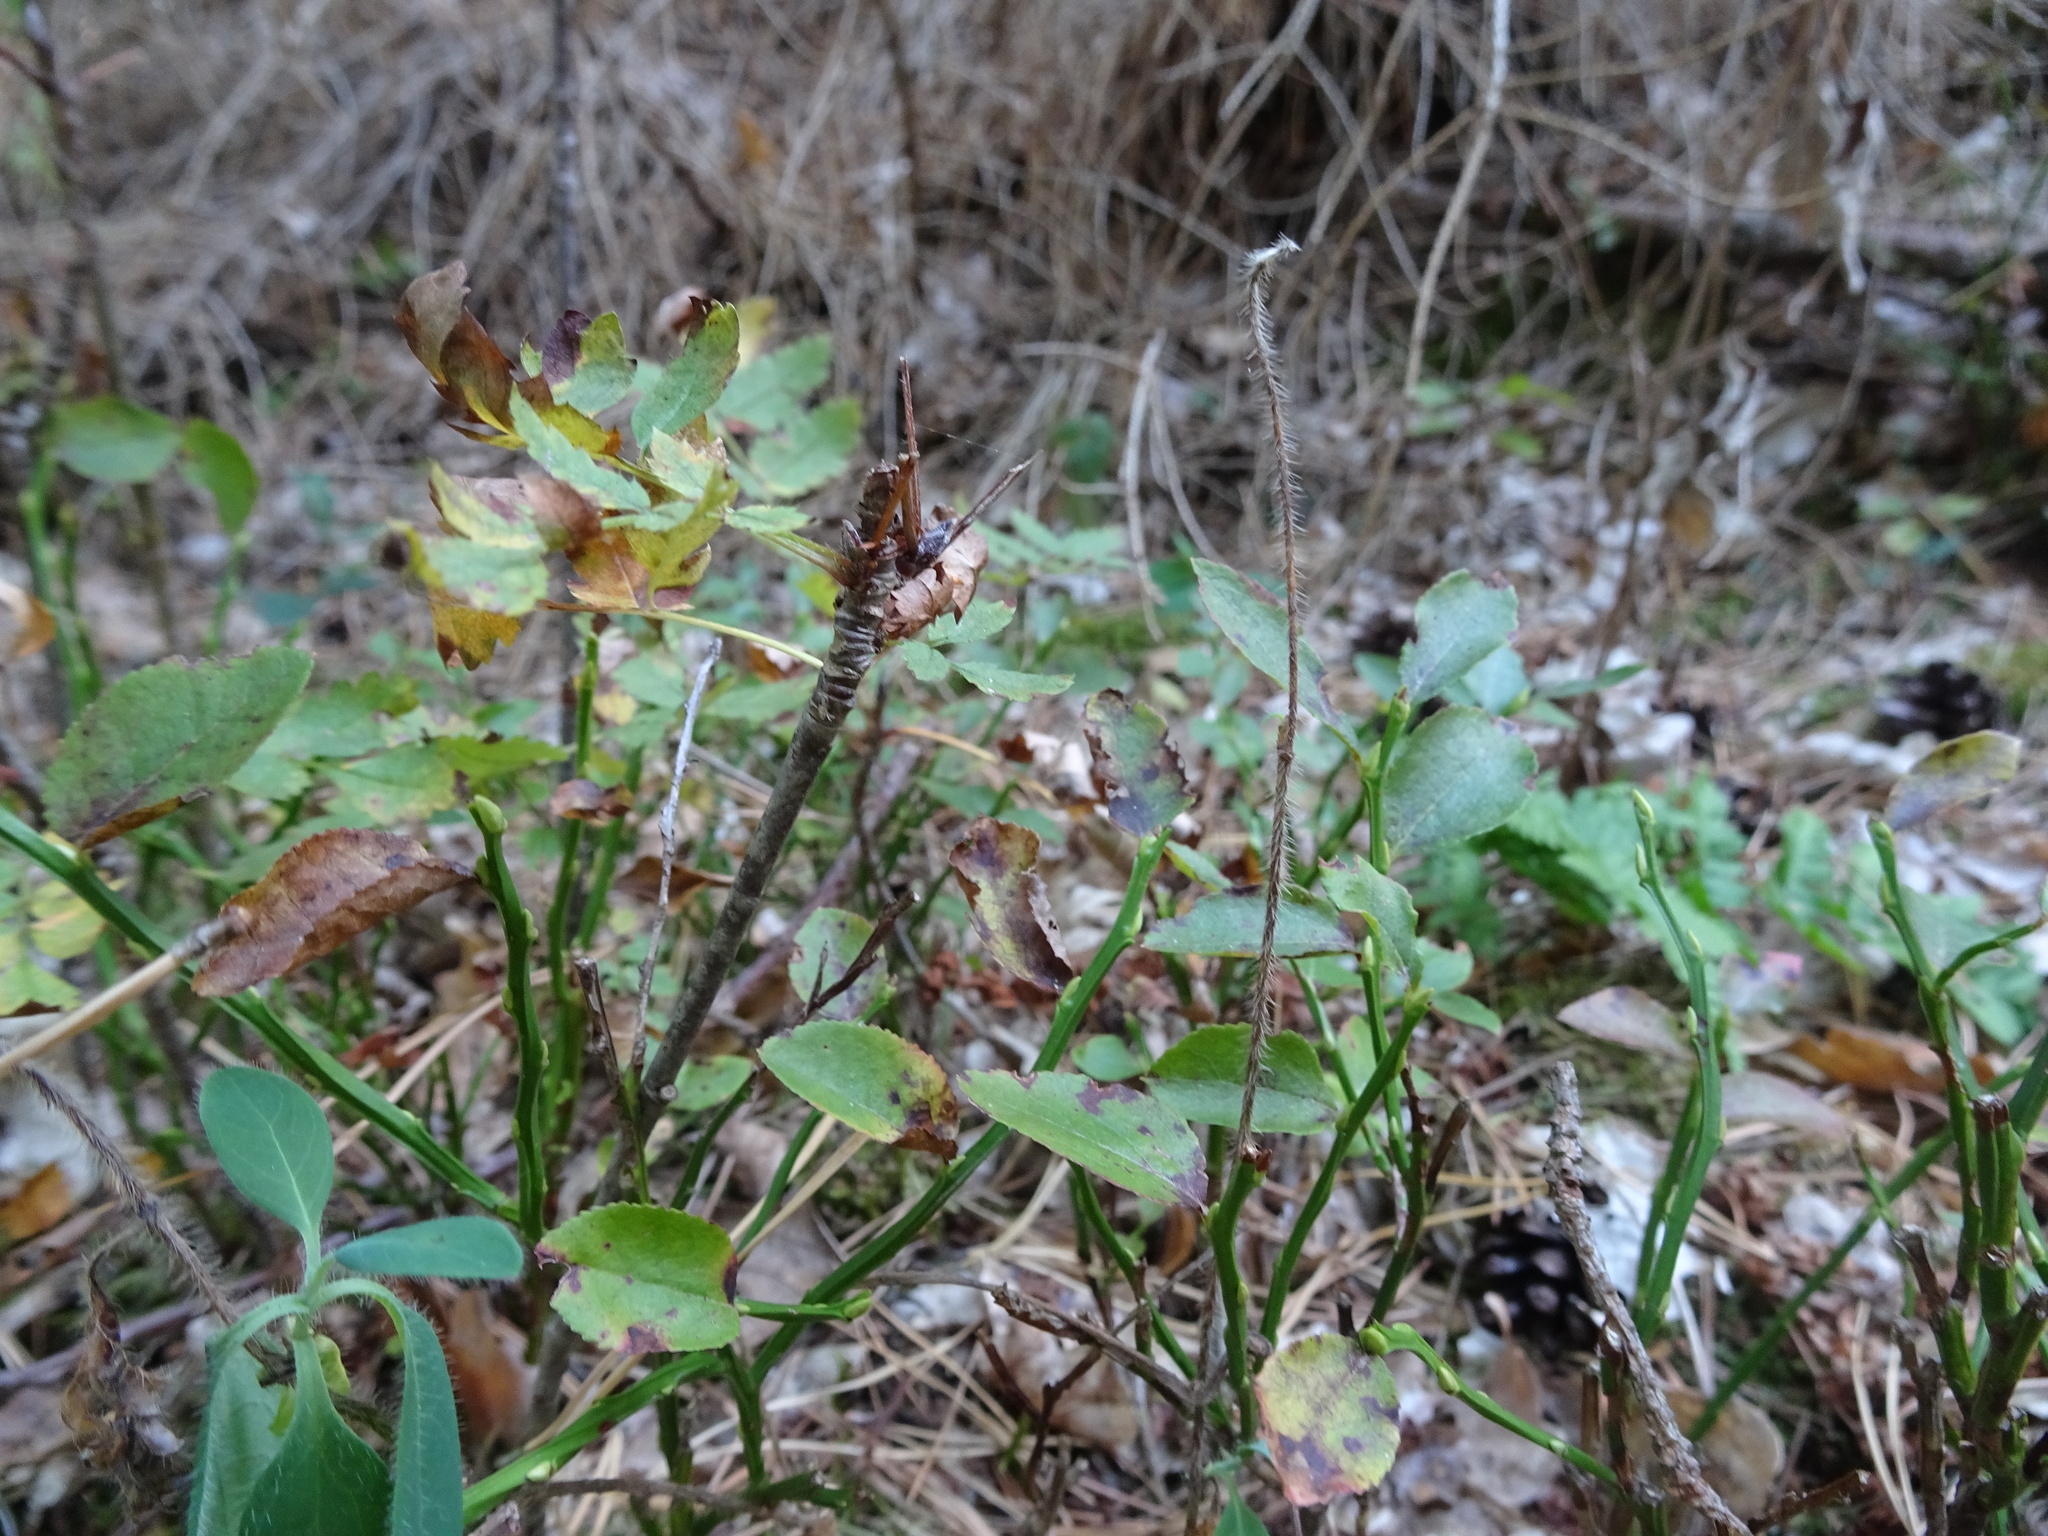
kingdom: Plantae
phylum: Tracheophyta
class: Magnoliopsida
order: Ericales
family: Ericaceae
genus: Vaccinium
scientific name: Vaccinium myrtillus
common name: Bilberry
